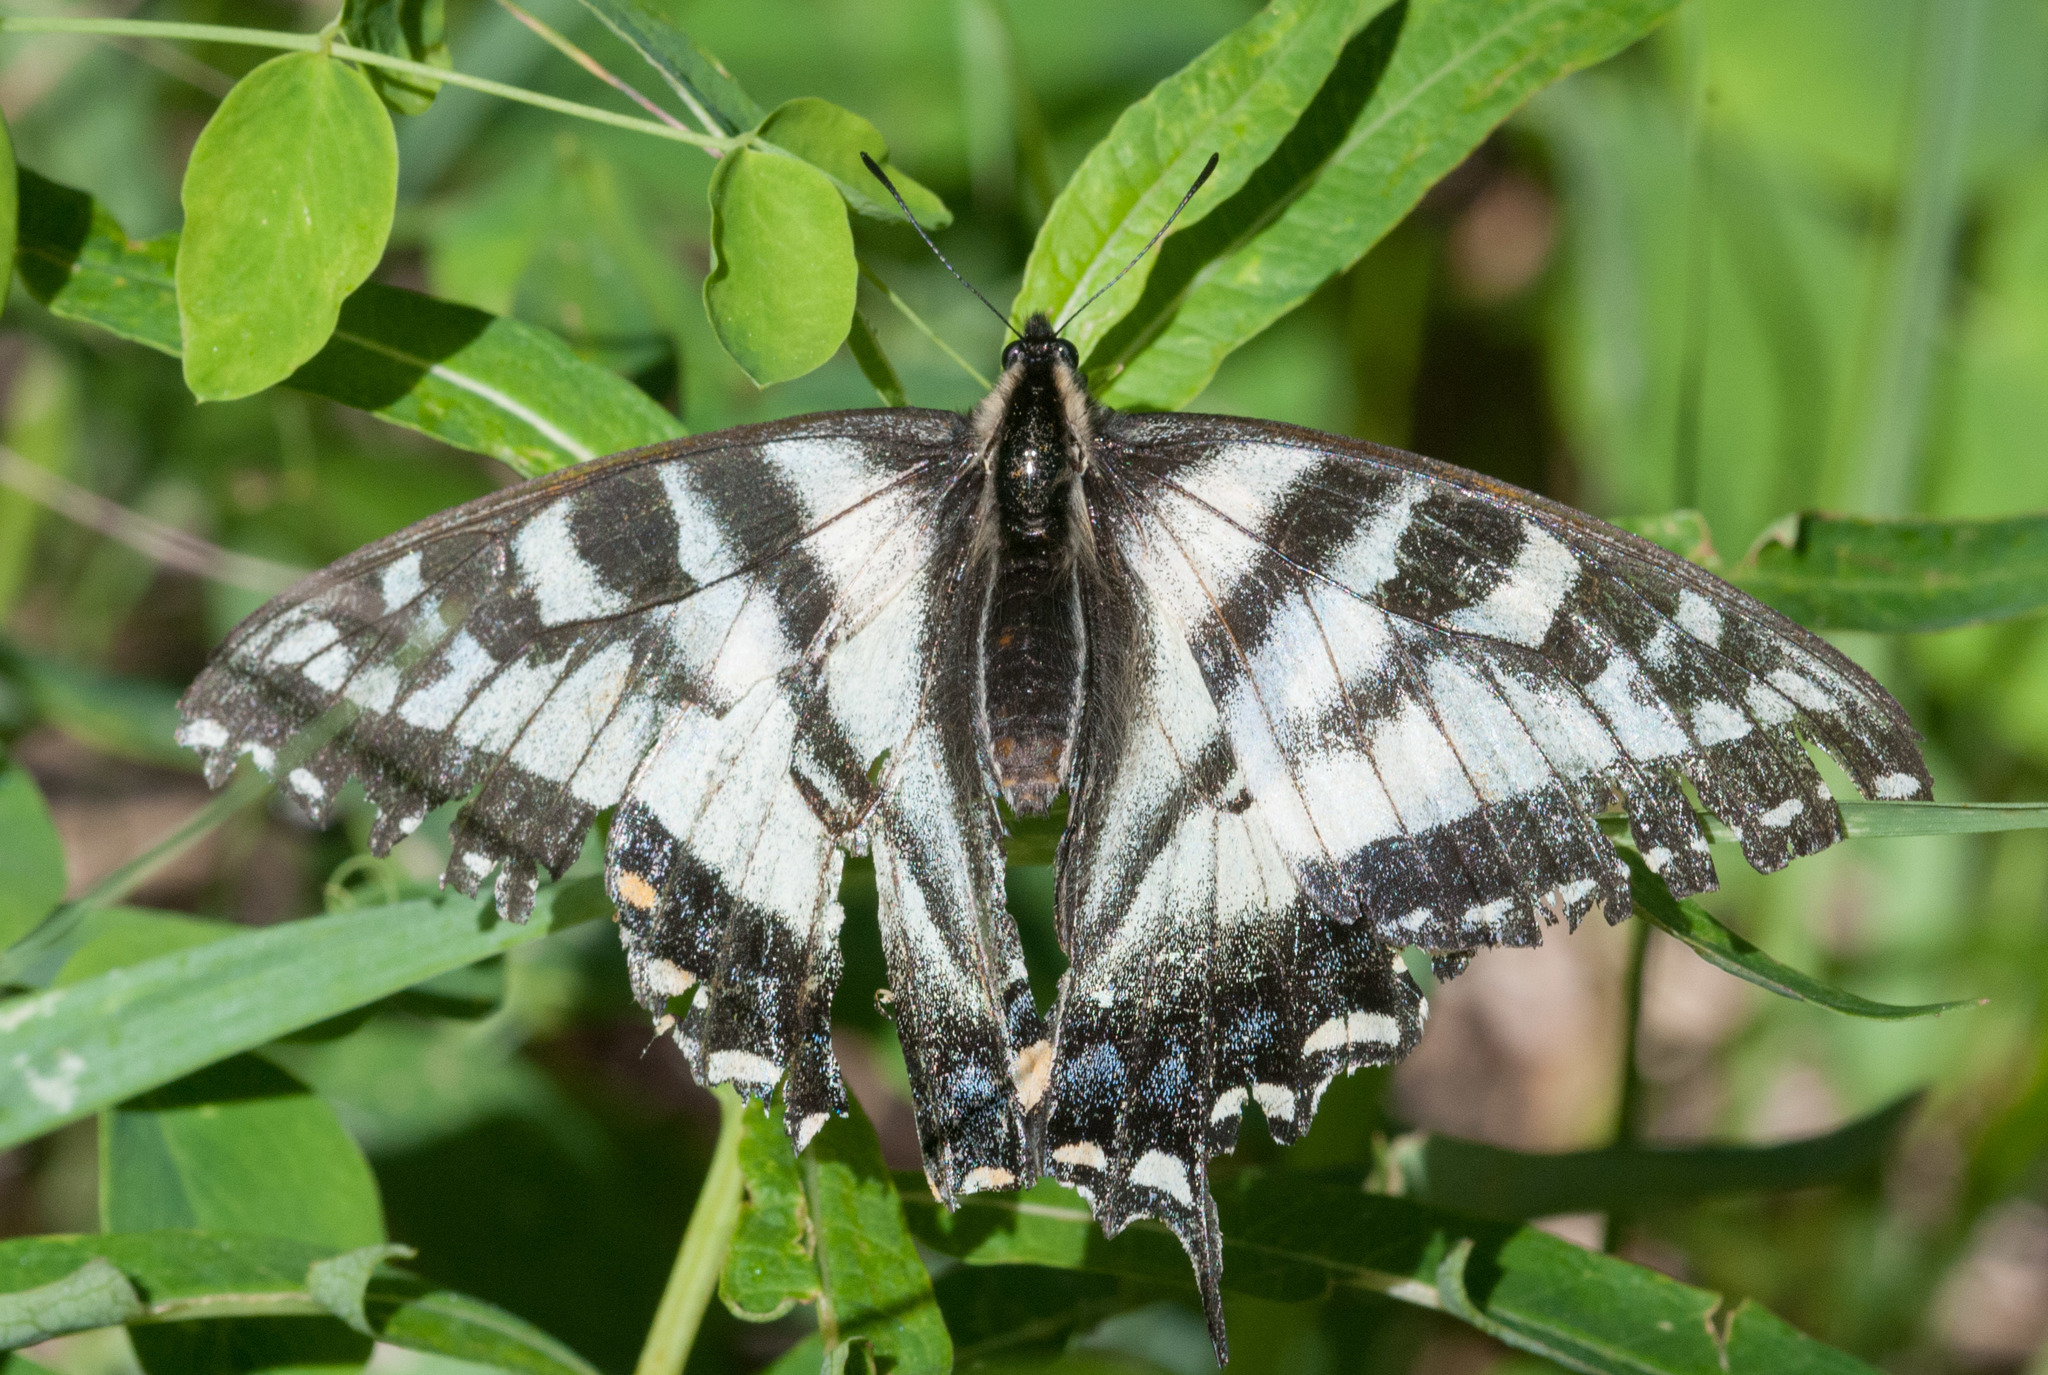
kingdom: Animalia
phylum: Arthropoda
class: Insecta
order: Lepidoptera
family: Papilionidae
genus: Papilio
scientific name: Papilio canadensis
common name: Canadian tiger swallowtail
